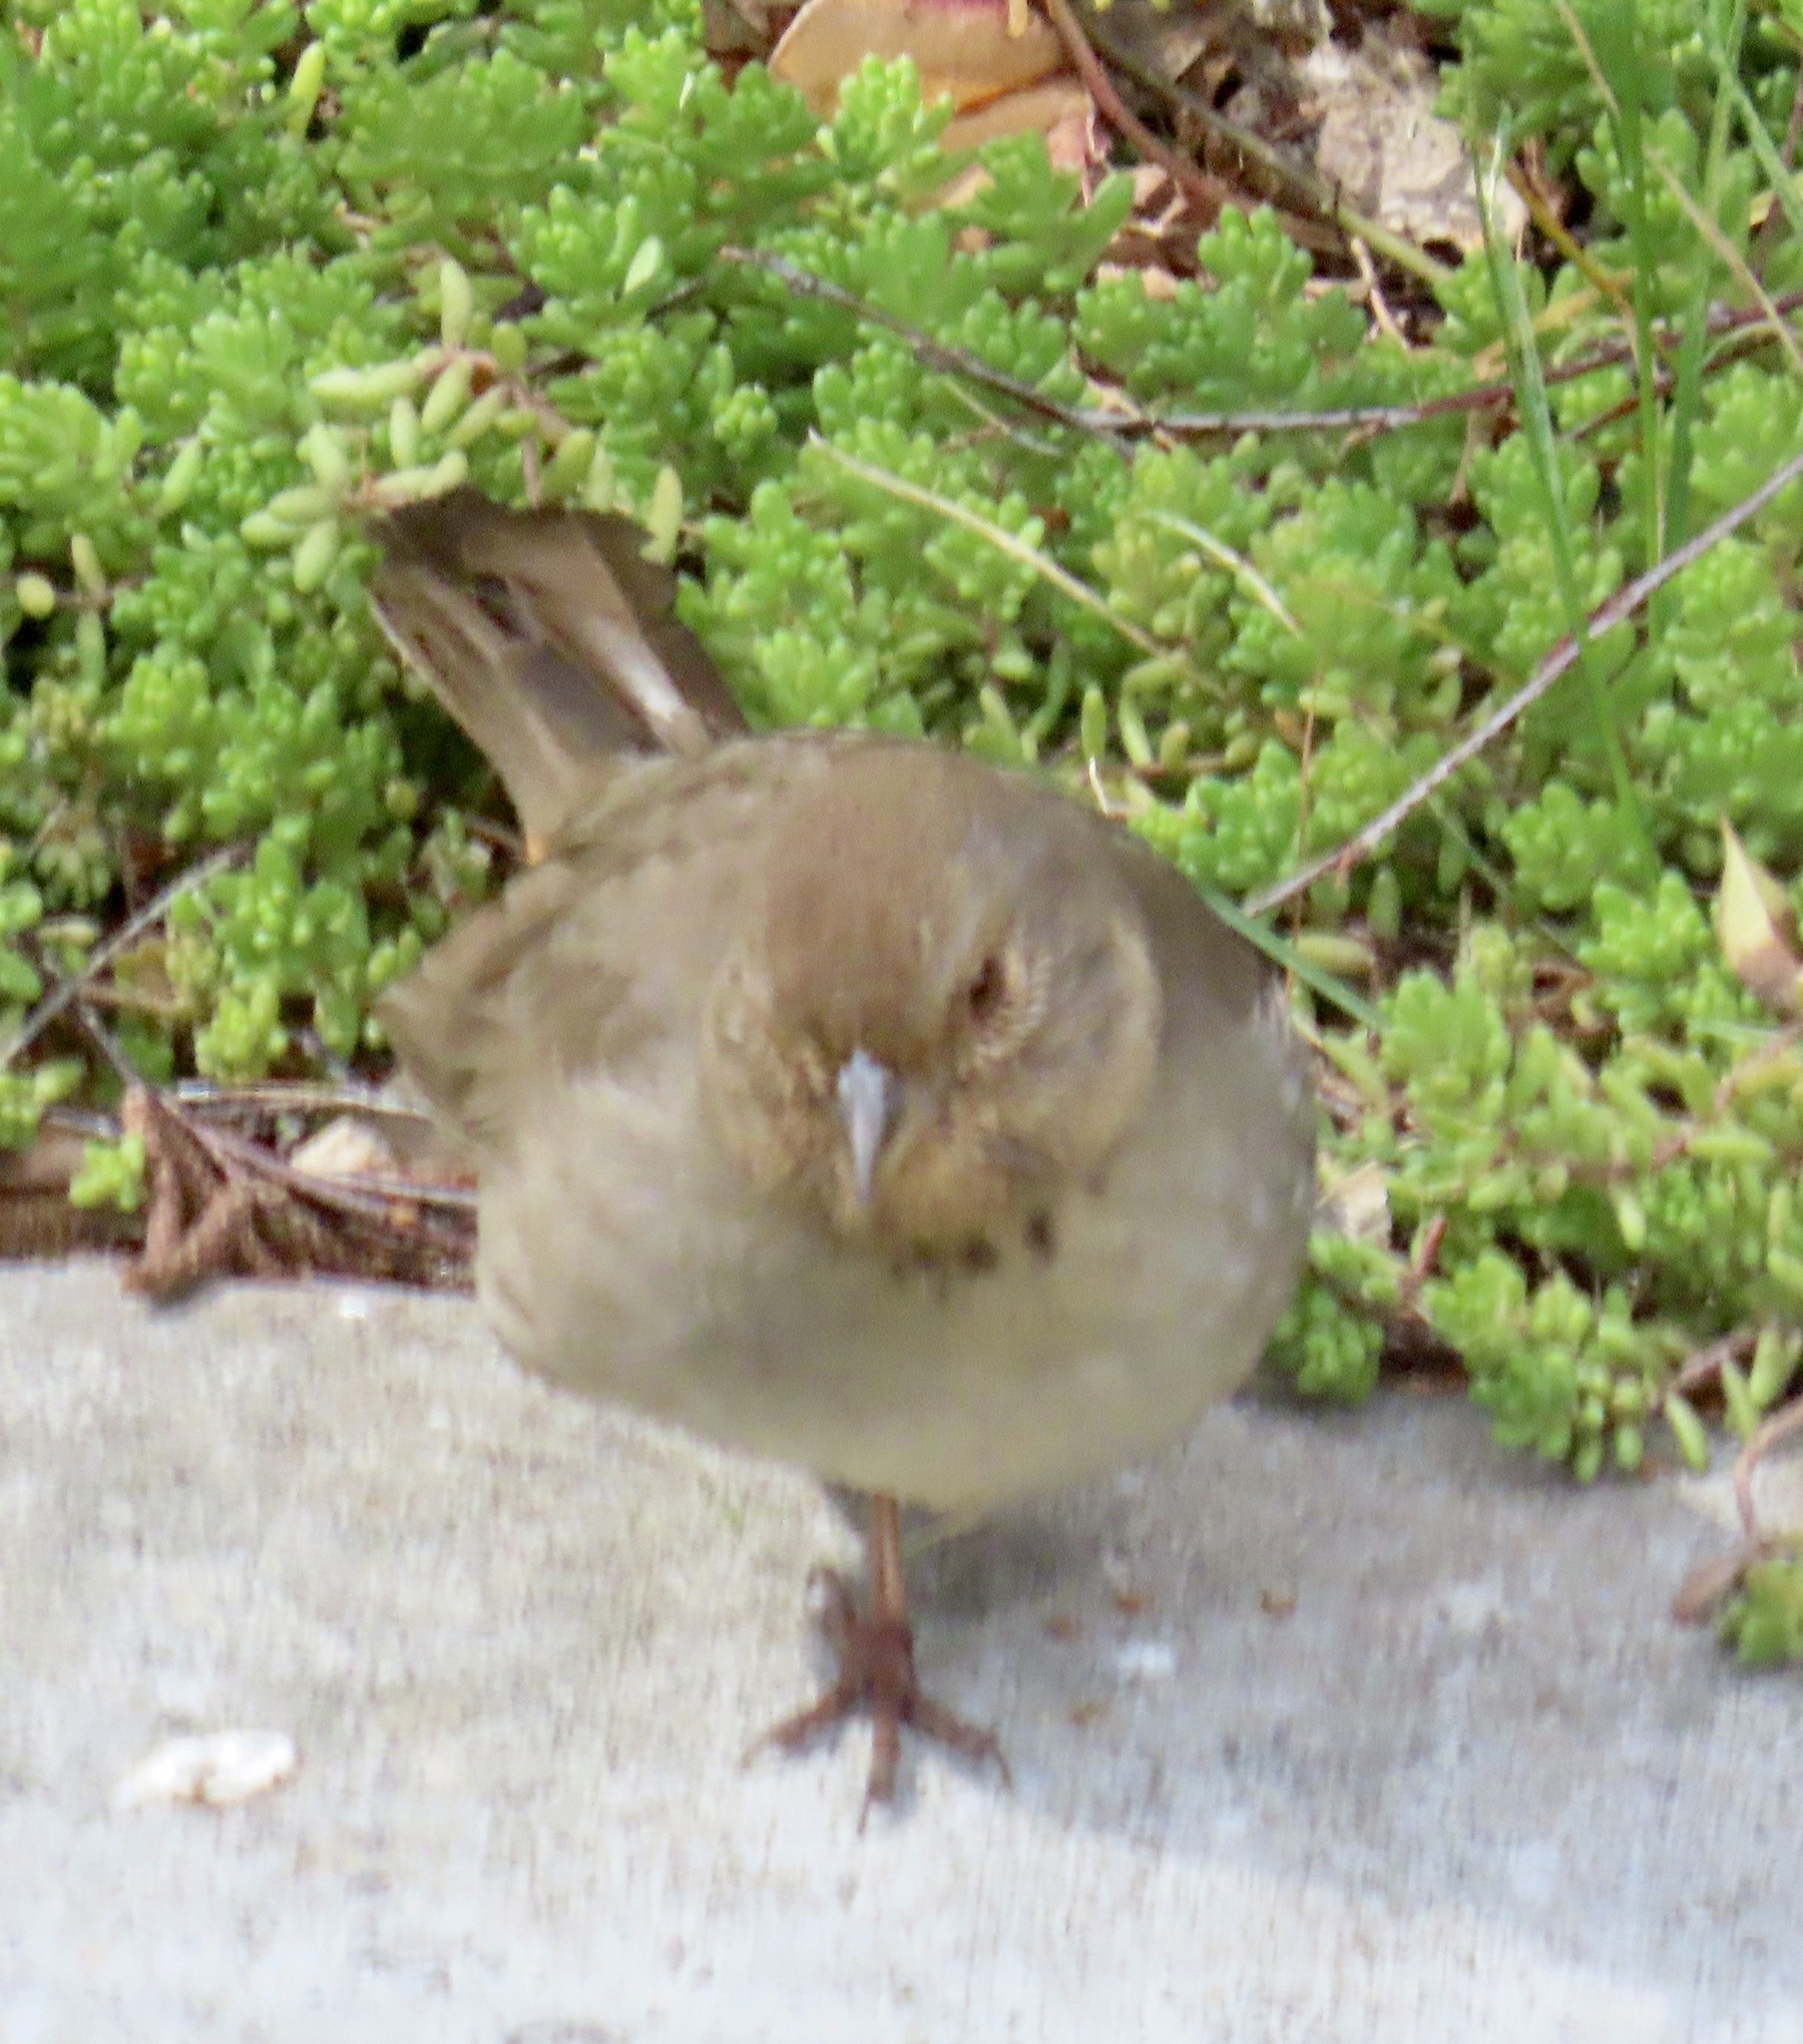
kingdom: Animalia
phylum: Chordata
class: Aves
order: Passeriformes
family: Passerellidae
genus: Melozone
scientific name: Melozone crissalis
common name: California towhee
